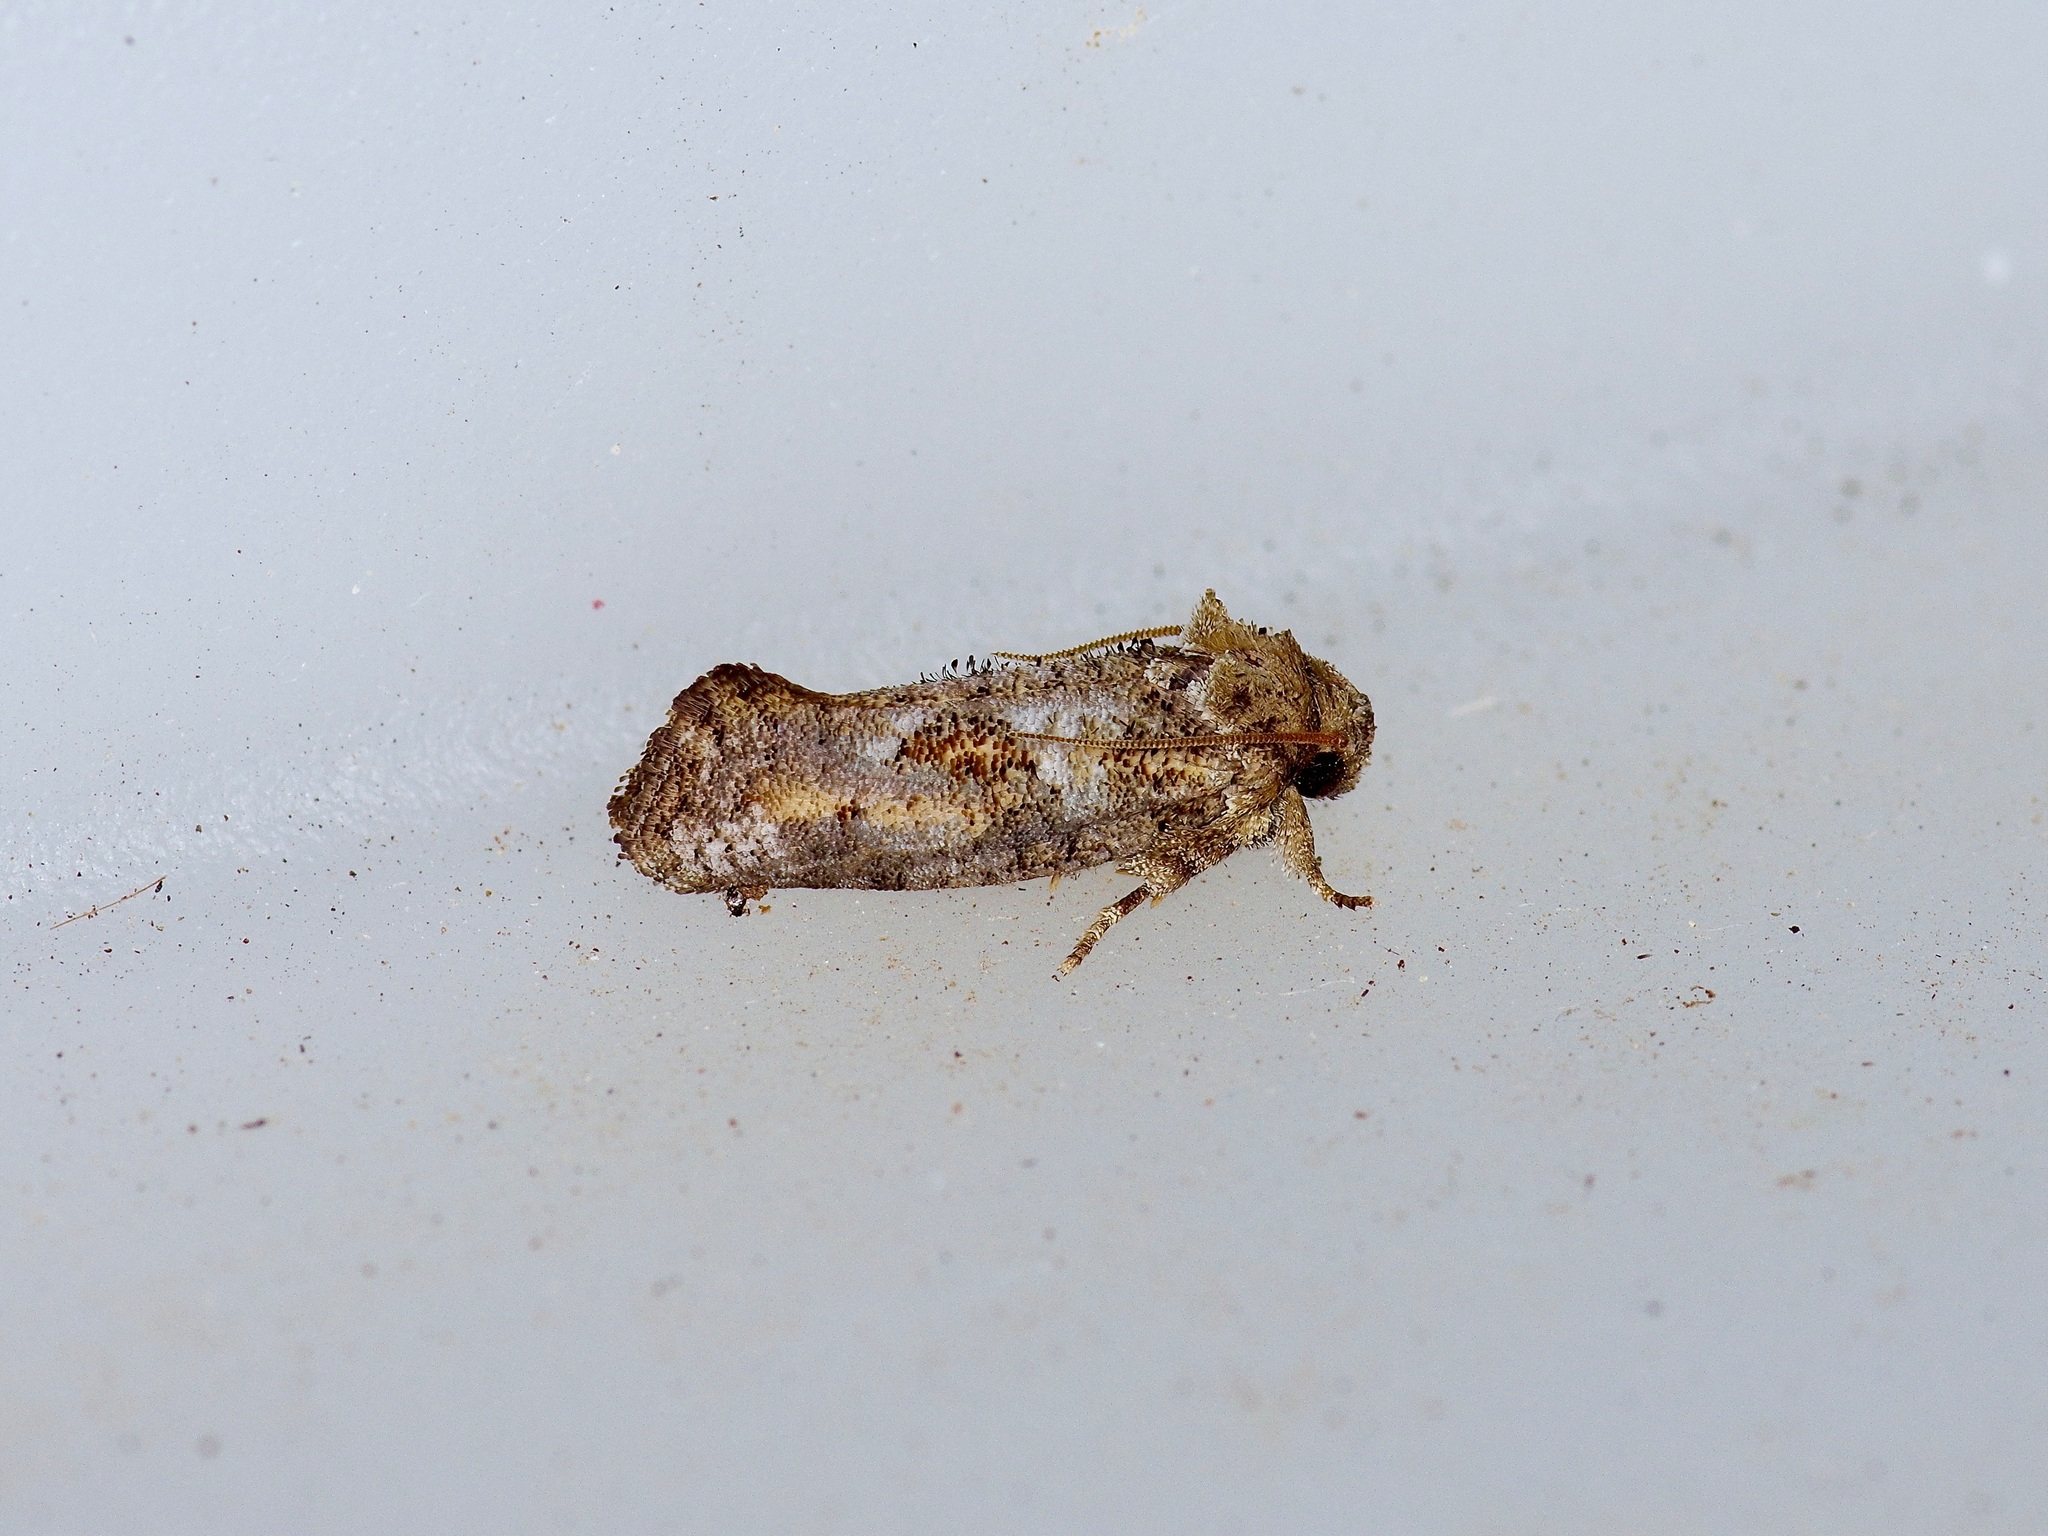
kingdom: Animalia
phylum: Arthropoda
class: Insecta
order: Lepidoptera
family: Tineidae
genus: Acrolophus
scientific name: Acrolophus piger
